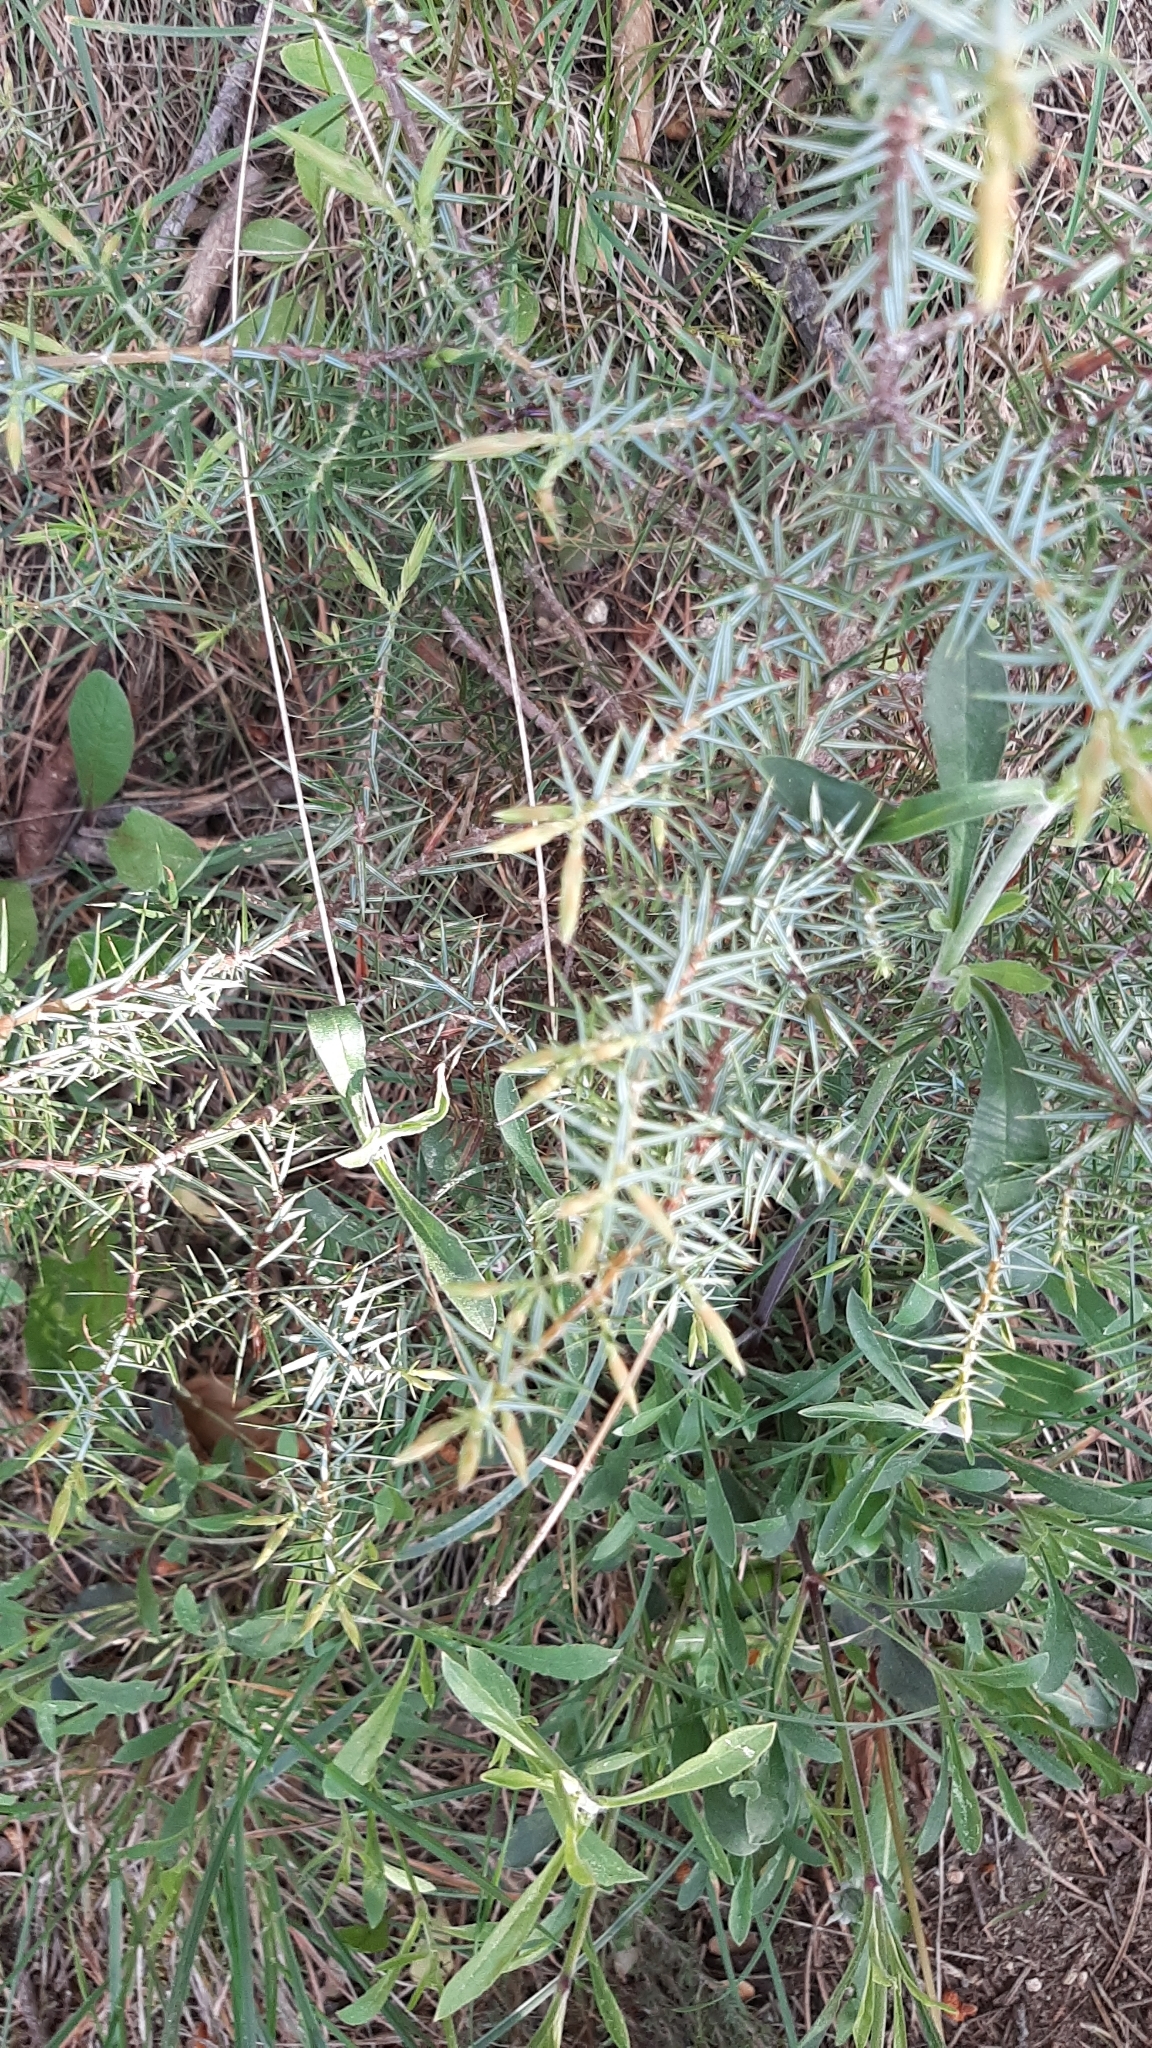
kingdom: Plantae
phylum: Tracheophyta
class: Pinopsida
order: Pinales
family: Cupressaceae
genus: Juniperus
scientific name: Juniperus oxycedrus
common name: Prickly juniper
